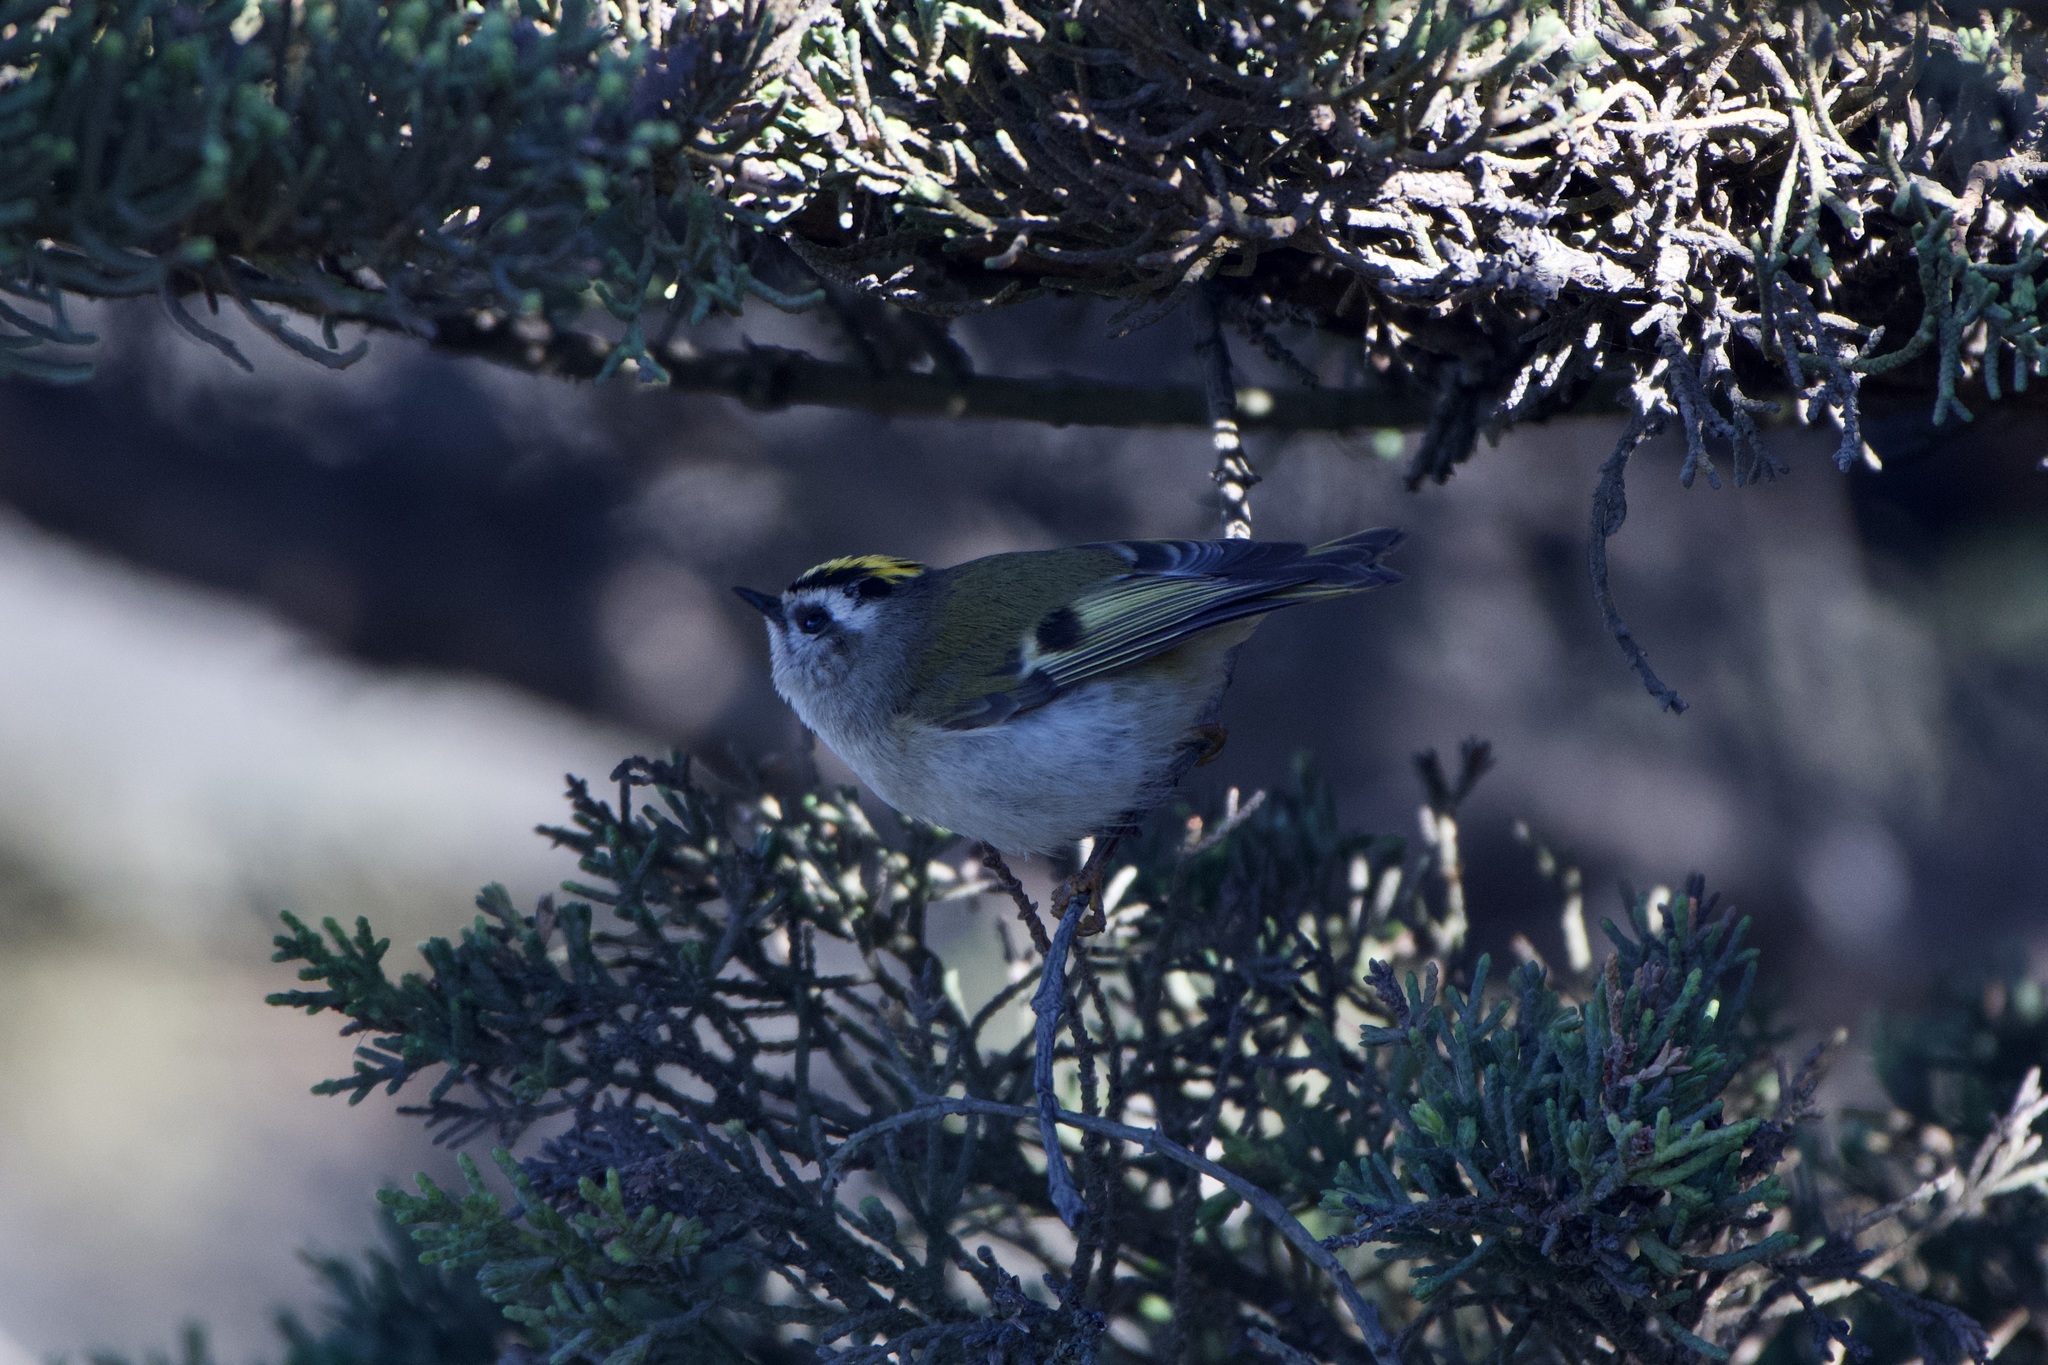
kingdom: Animalia
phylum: Chordata
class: Aves
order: Passeriformes
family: Regulidae
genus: Regulus
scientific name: Regulus satrapa
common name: Golden-crowned kinglet
